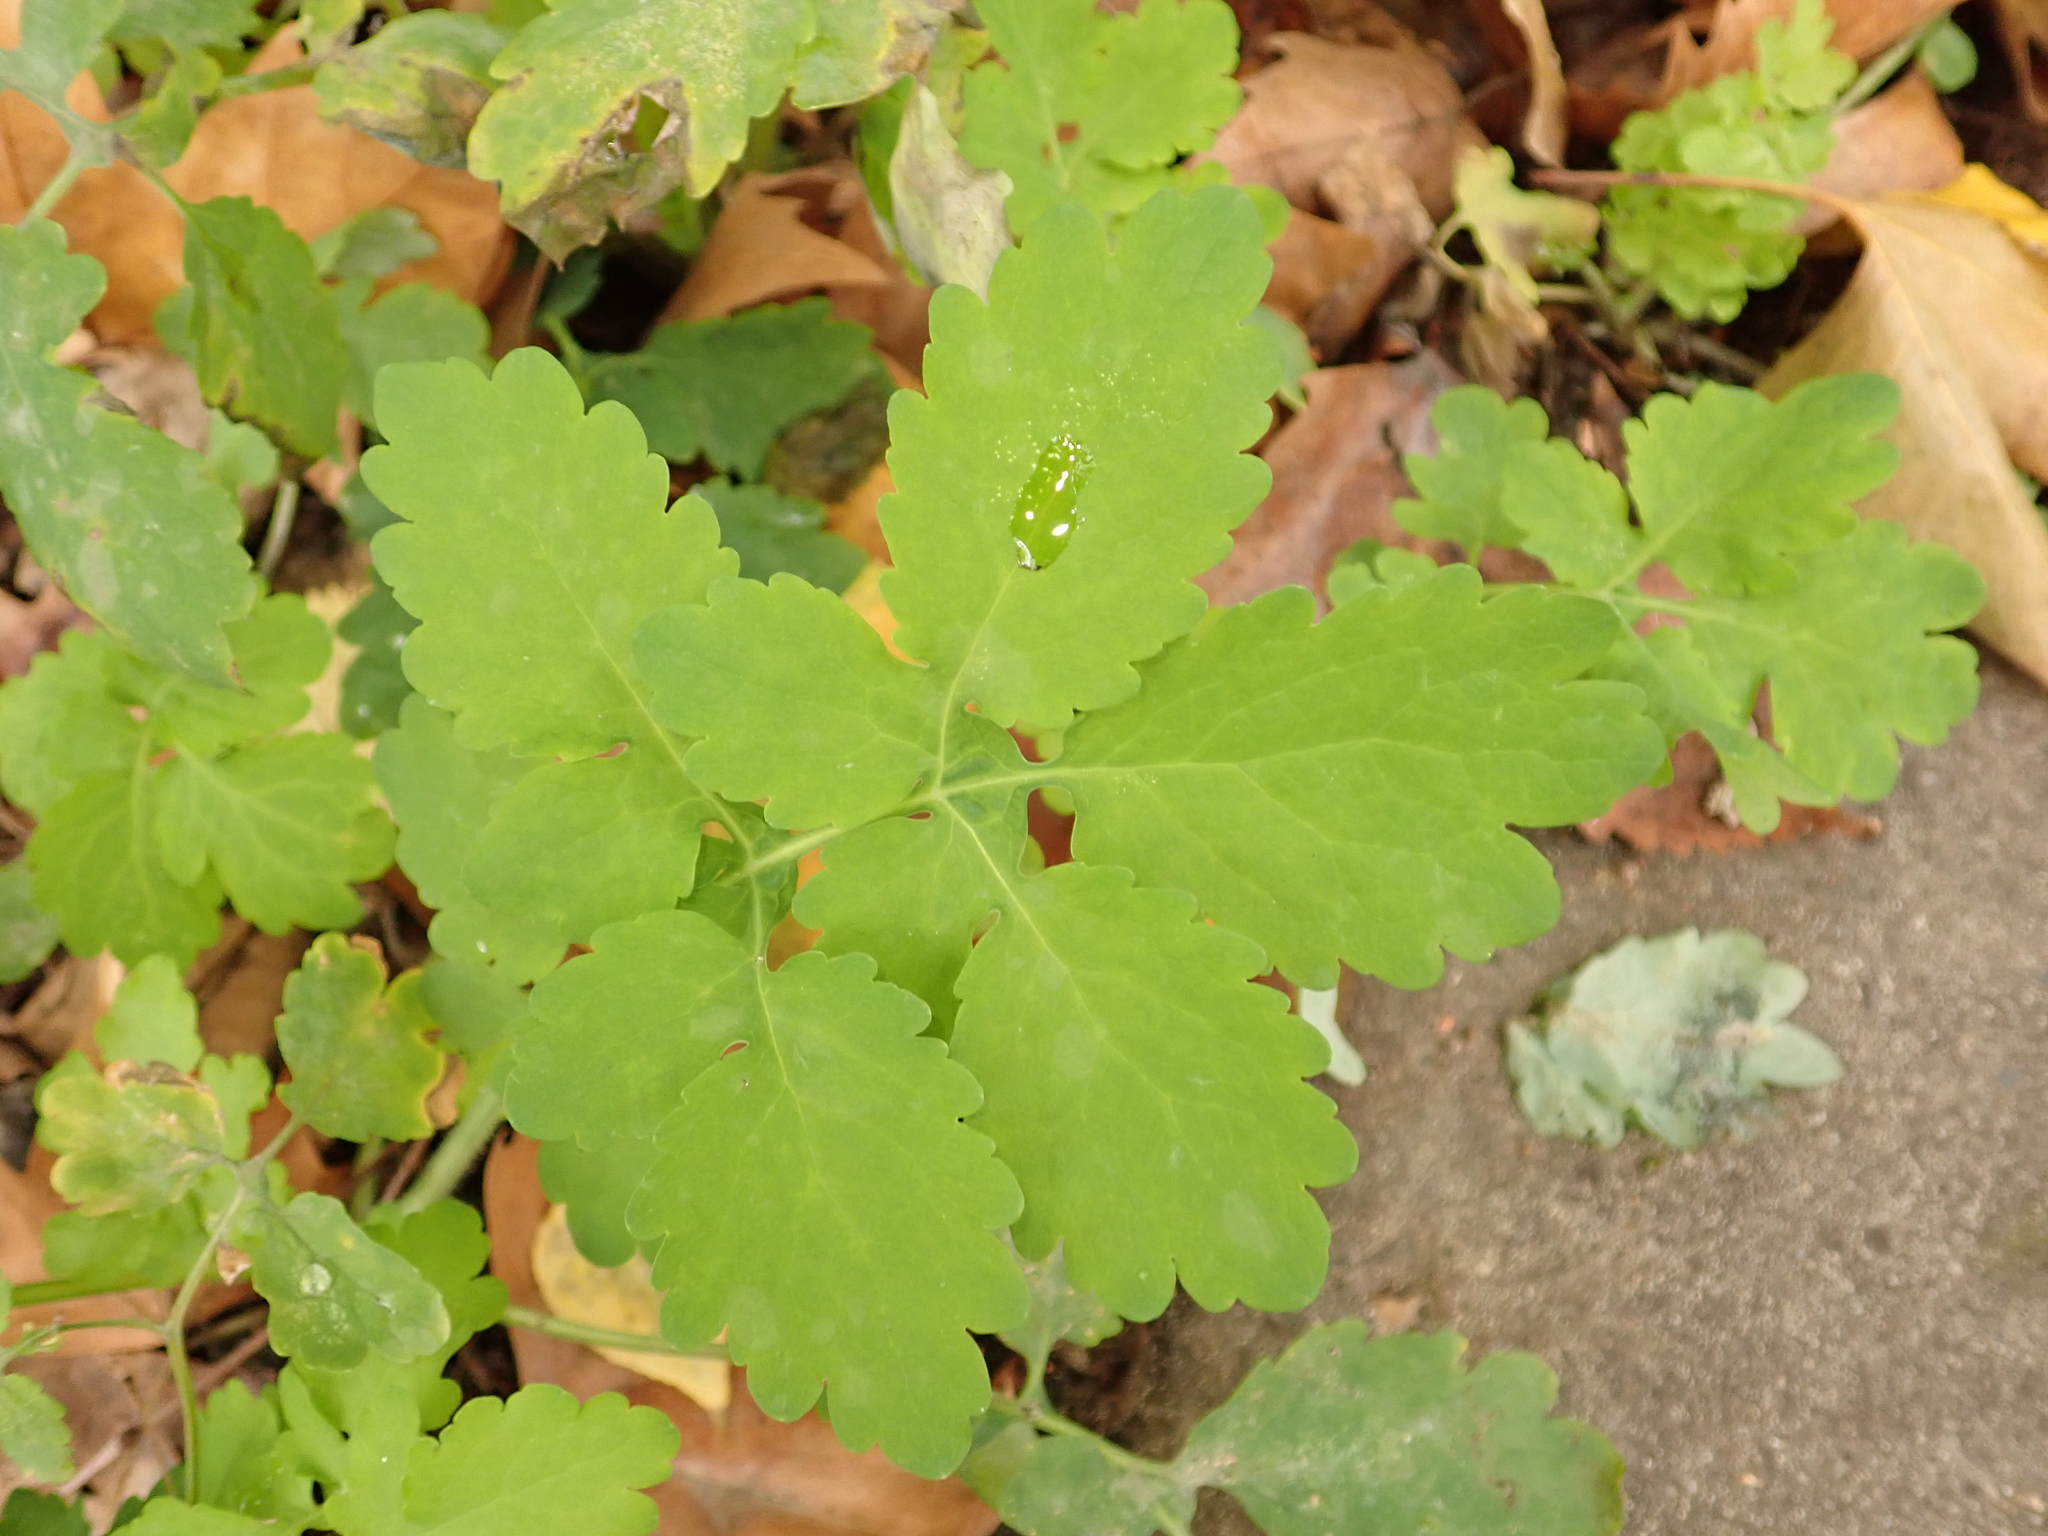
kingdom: Plantae
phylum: Tracheophyta
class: Magnoliopsida
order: Ranunculales
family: Papaveraceae
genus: Chelidonium
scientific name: Chelidonium majus
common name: Greater celandine
